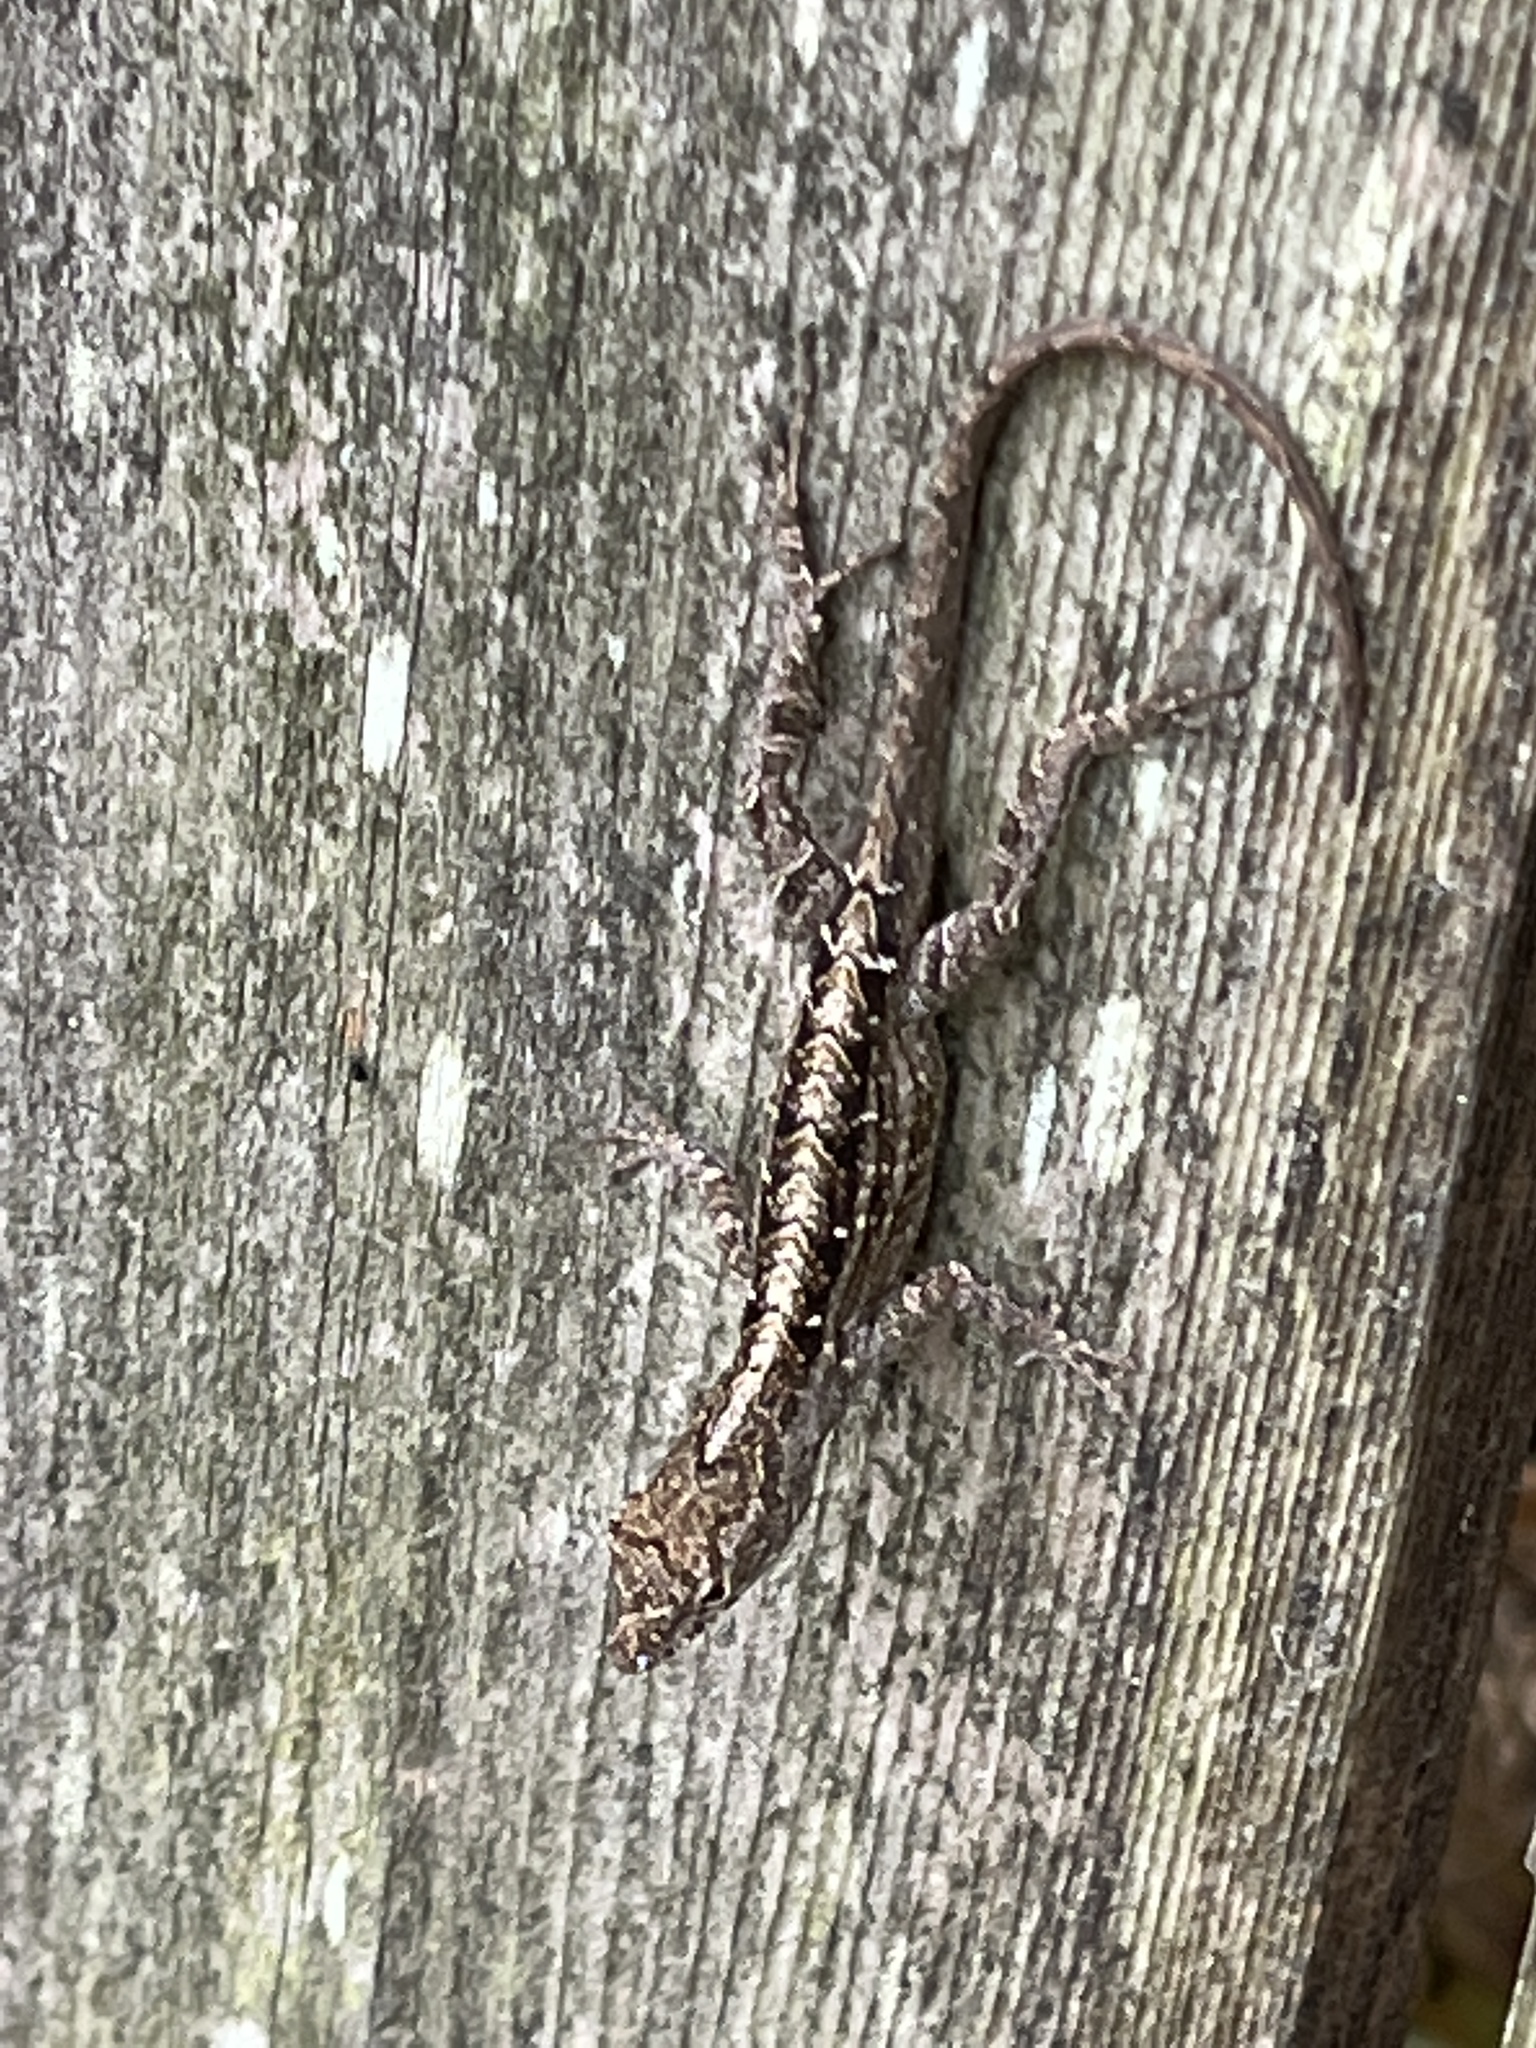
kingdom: Animalia
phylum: Chordata
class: Squamata
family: Dactyloidae
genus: Anolis
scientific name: Anolis sagrei
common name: Brown anole
